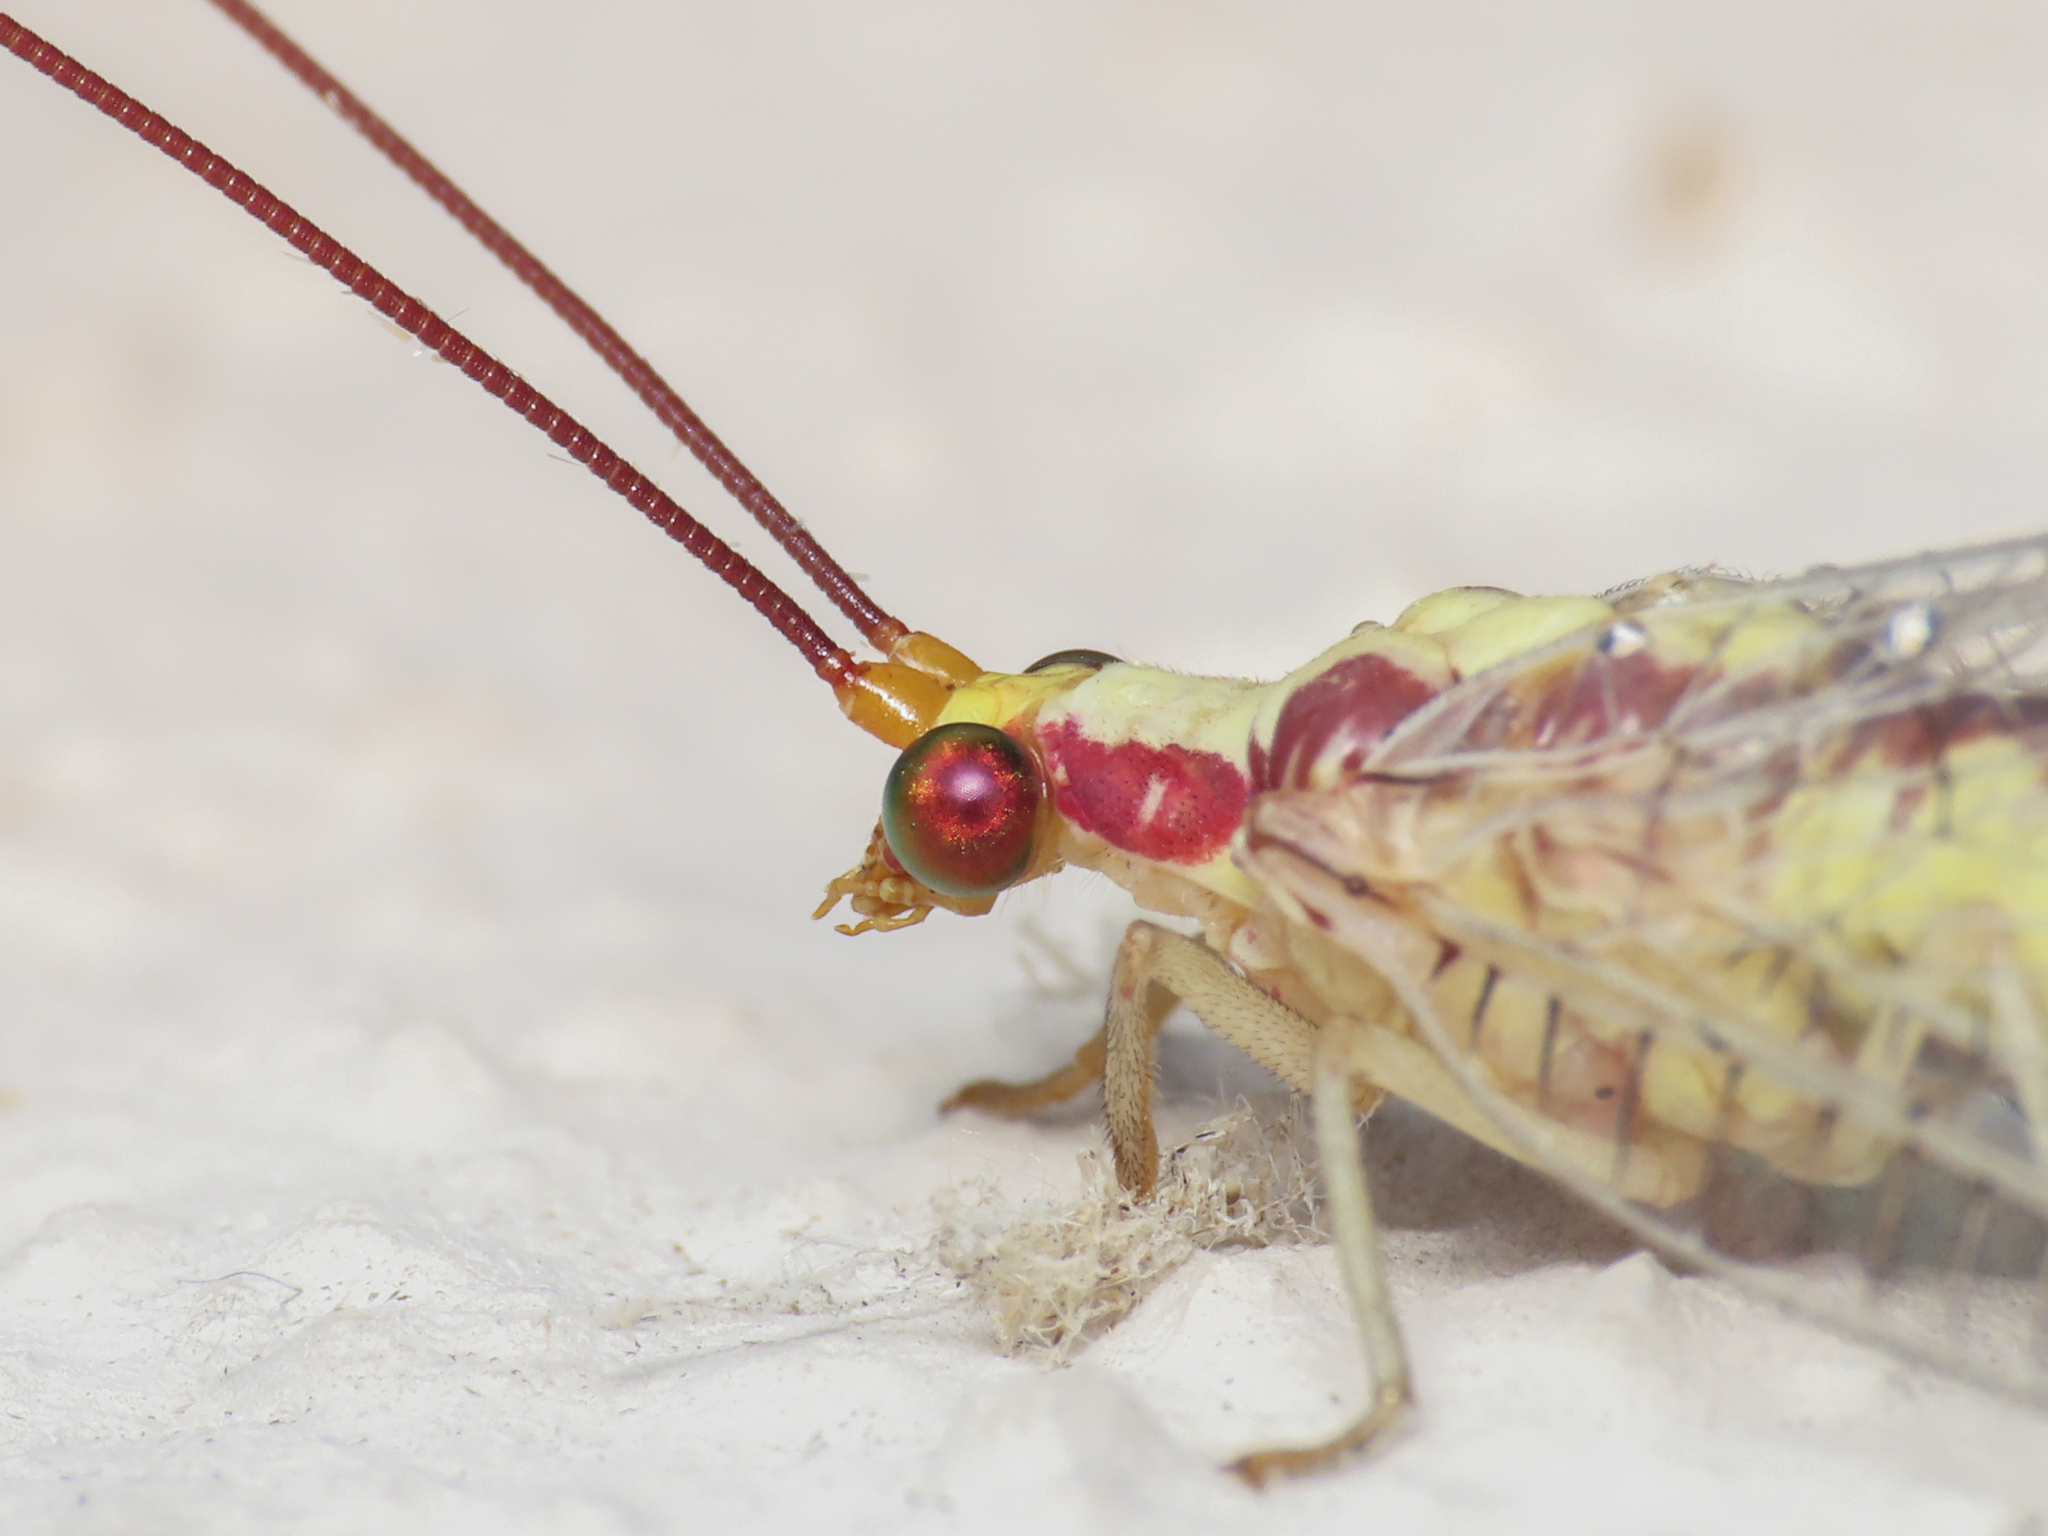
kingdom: Animalia
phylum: Arthropoda
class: Insecta
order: Neuroptera
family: Chrysopidae
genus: Italochrysa
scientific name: Italochrysa italica
